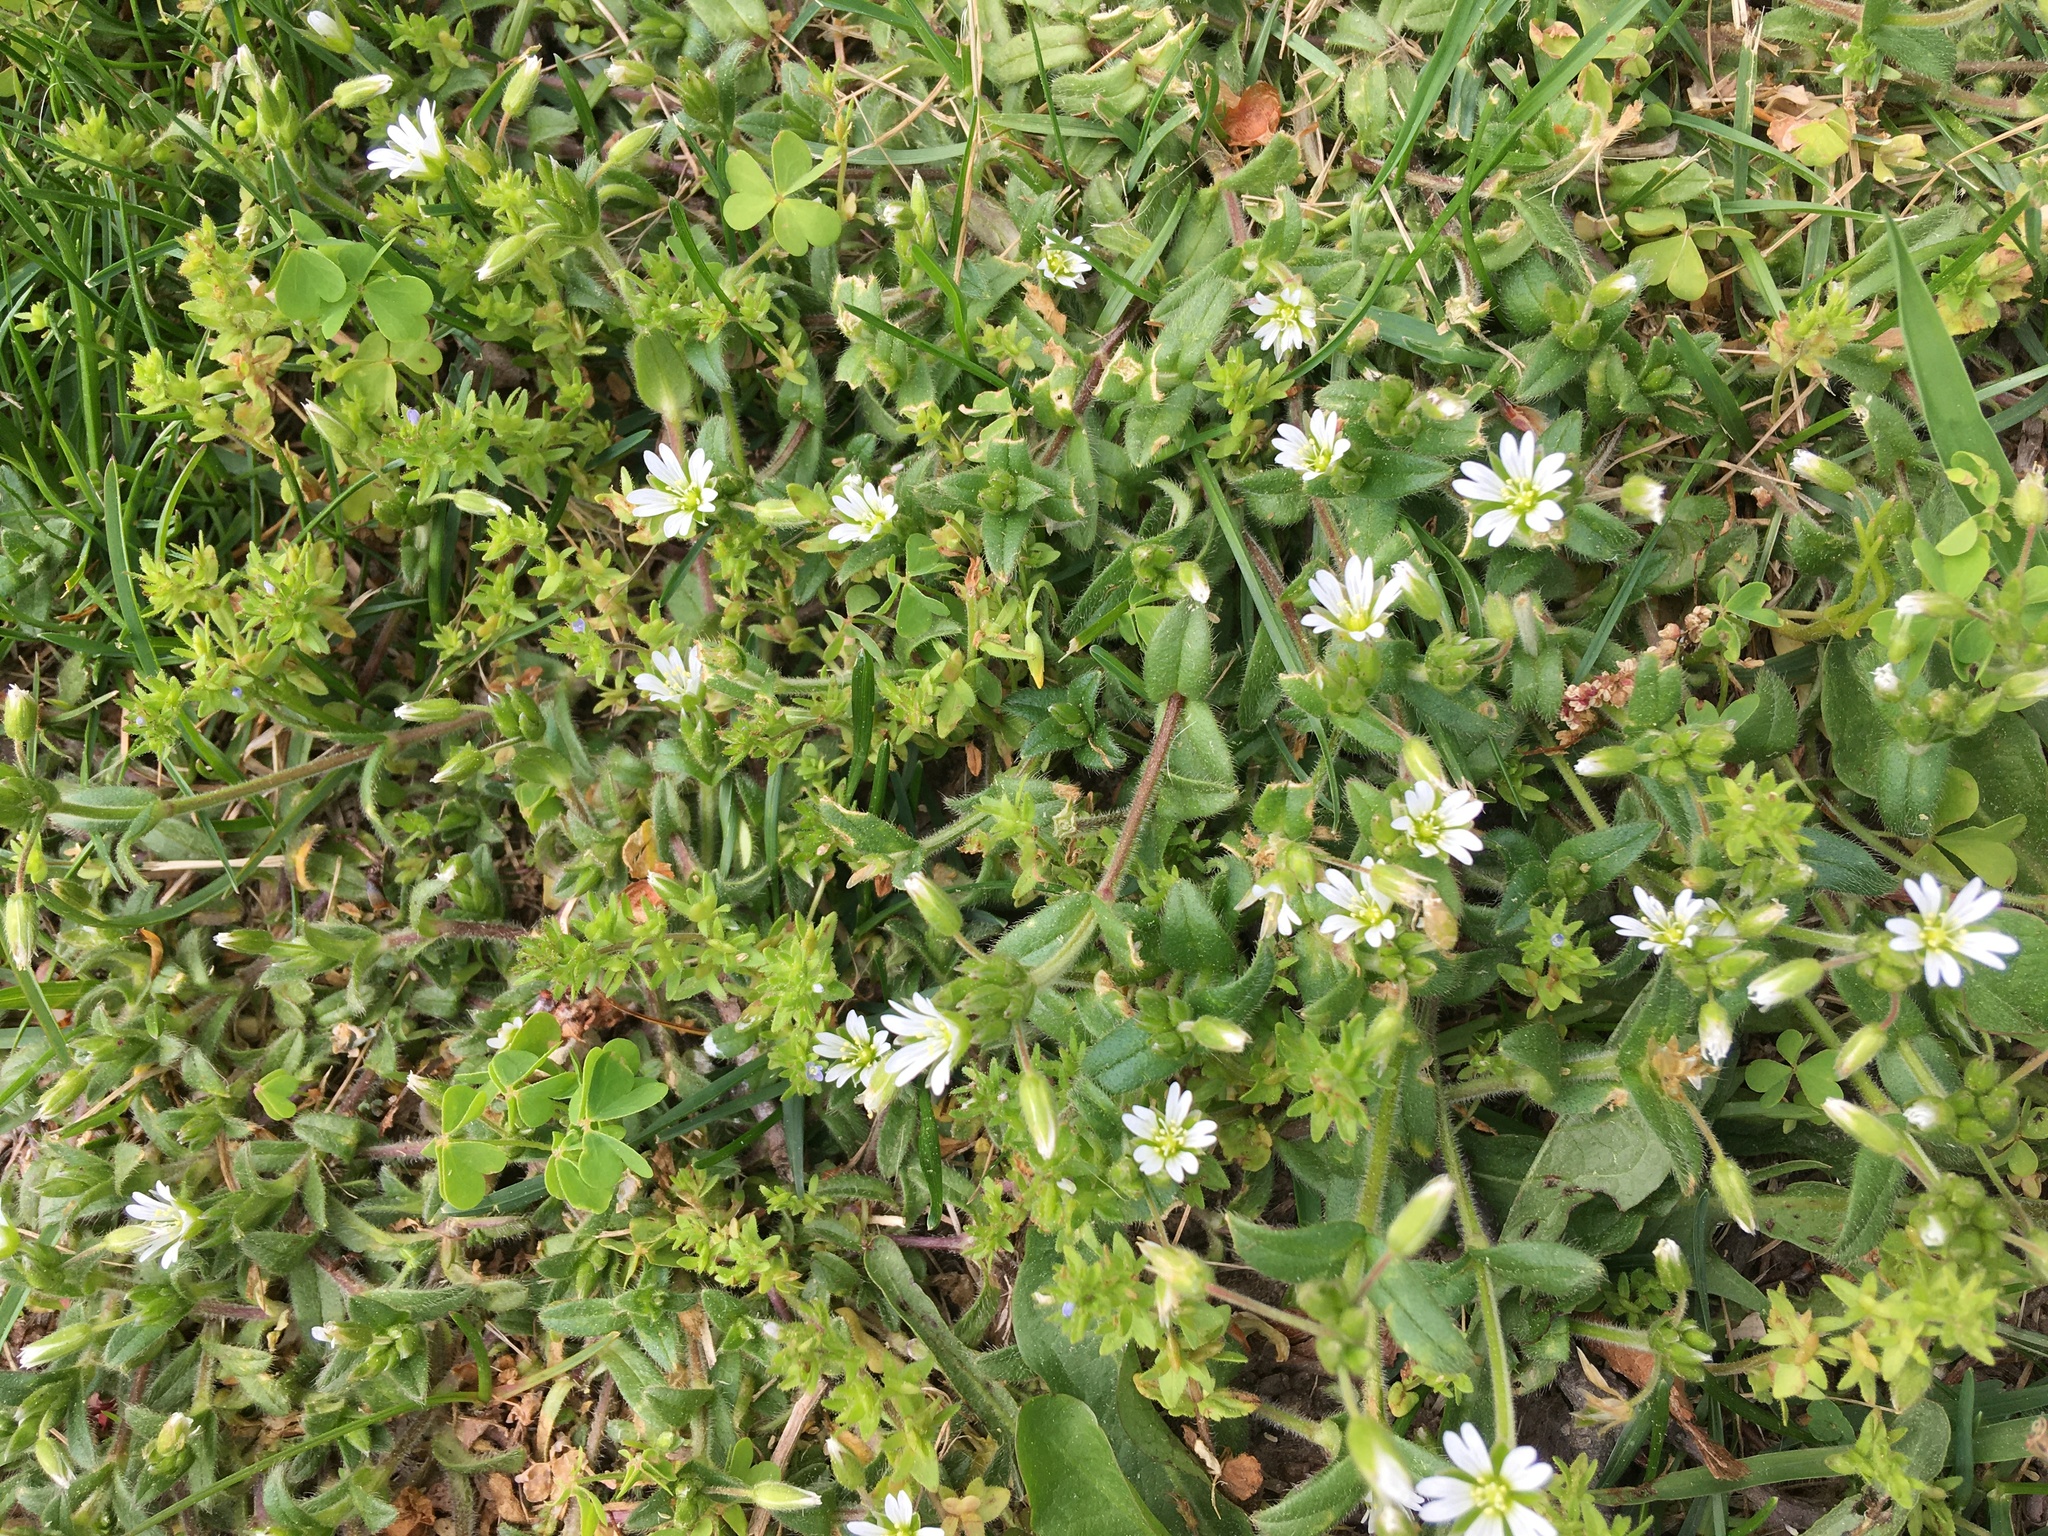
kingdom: Plantae
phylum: Tracheophyta
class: Magnoliopsida
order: Caryophyllales
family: Caryophyllaceae
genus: Cerastium
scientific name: Cerastium fontanum
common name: Common mouse-ear
